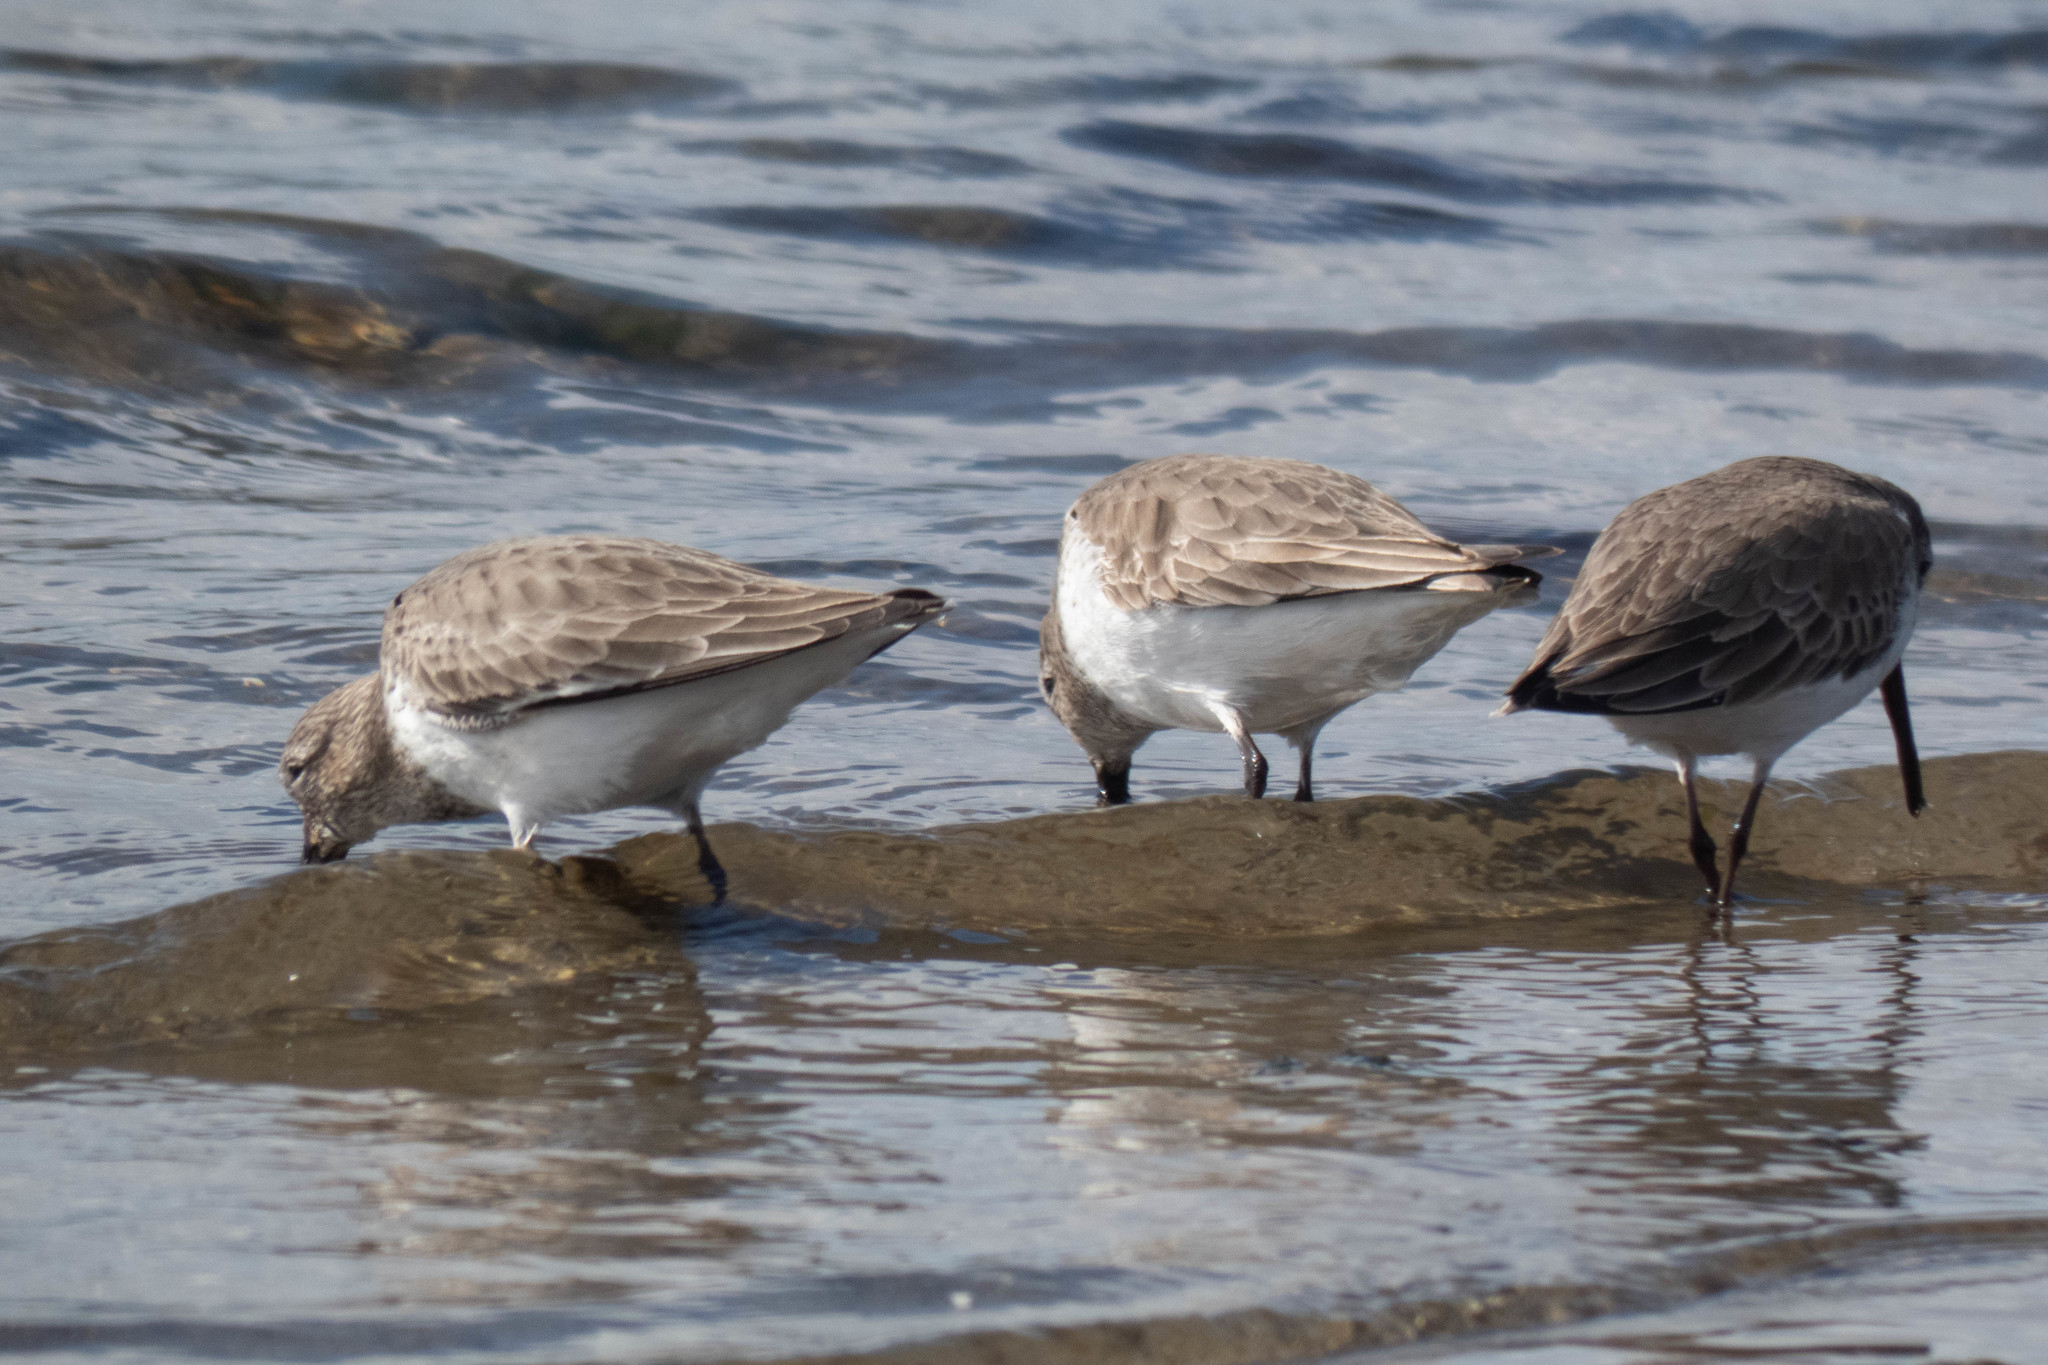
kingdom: Animalia
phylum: Chordata
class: Aves
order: Charadriiformes
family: Scolopacidae
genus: Calidris
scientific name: Calidris alpina
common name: Dunlin
